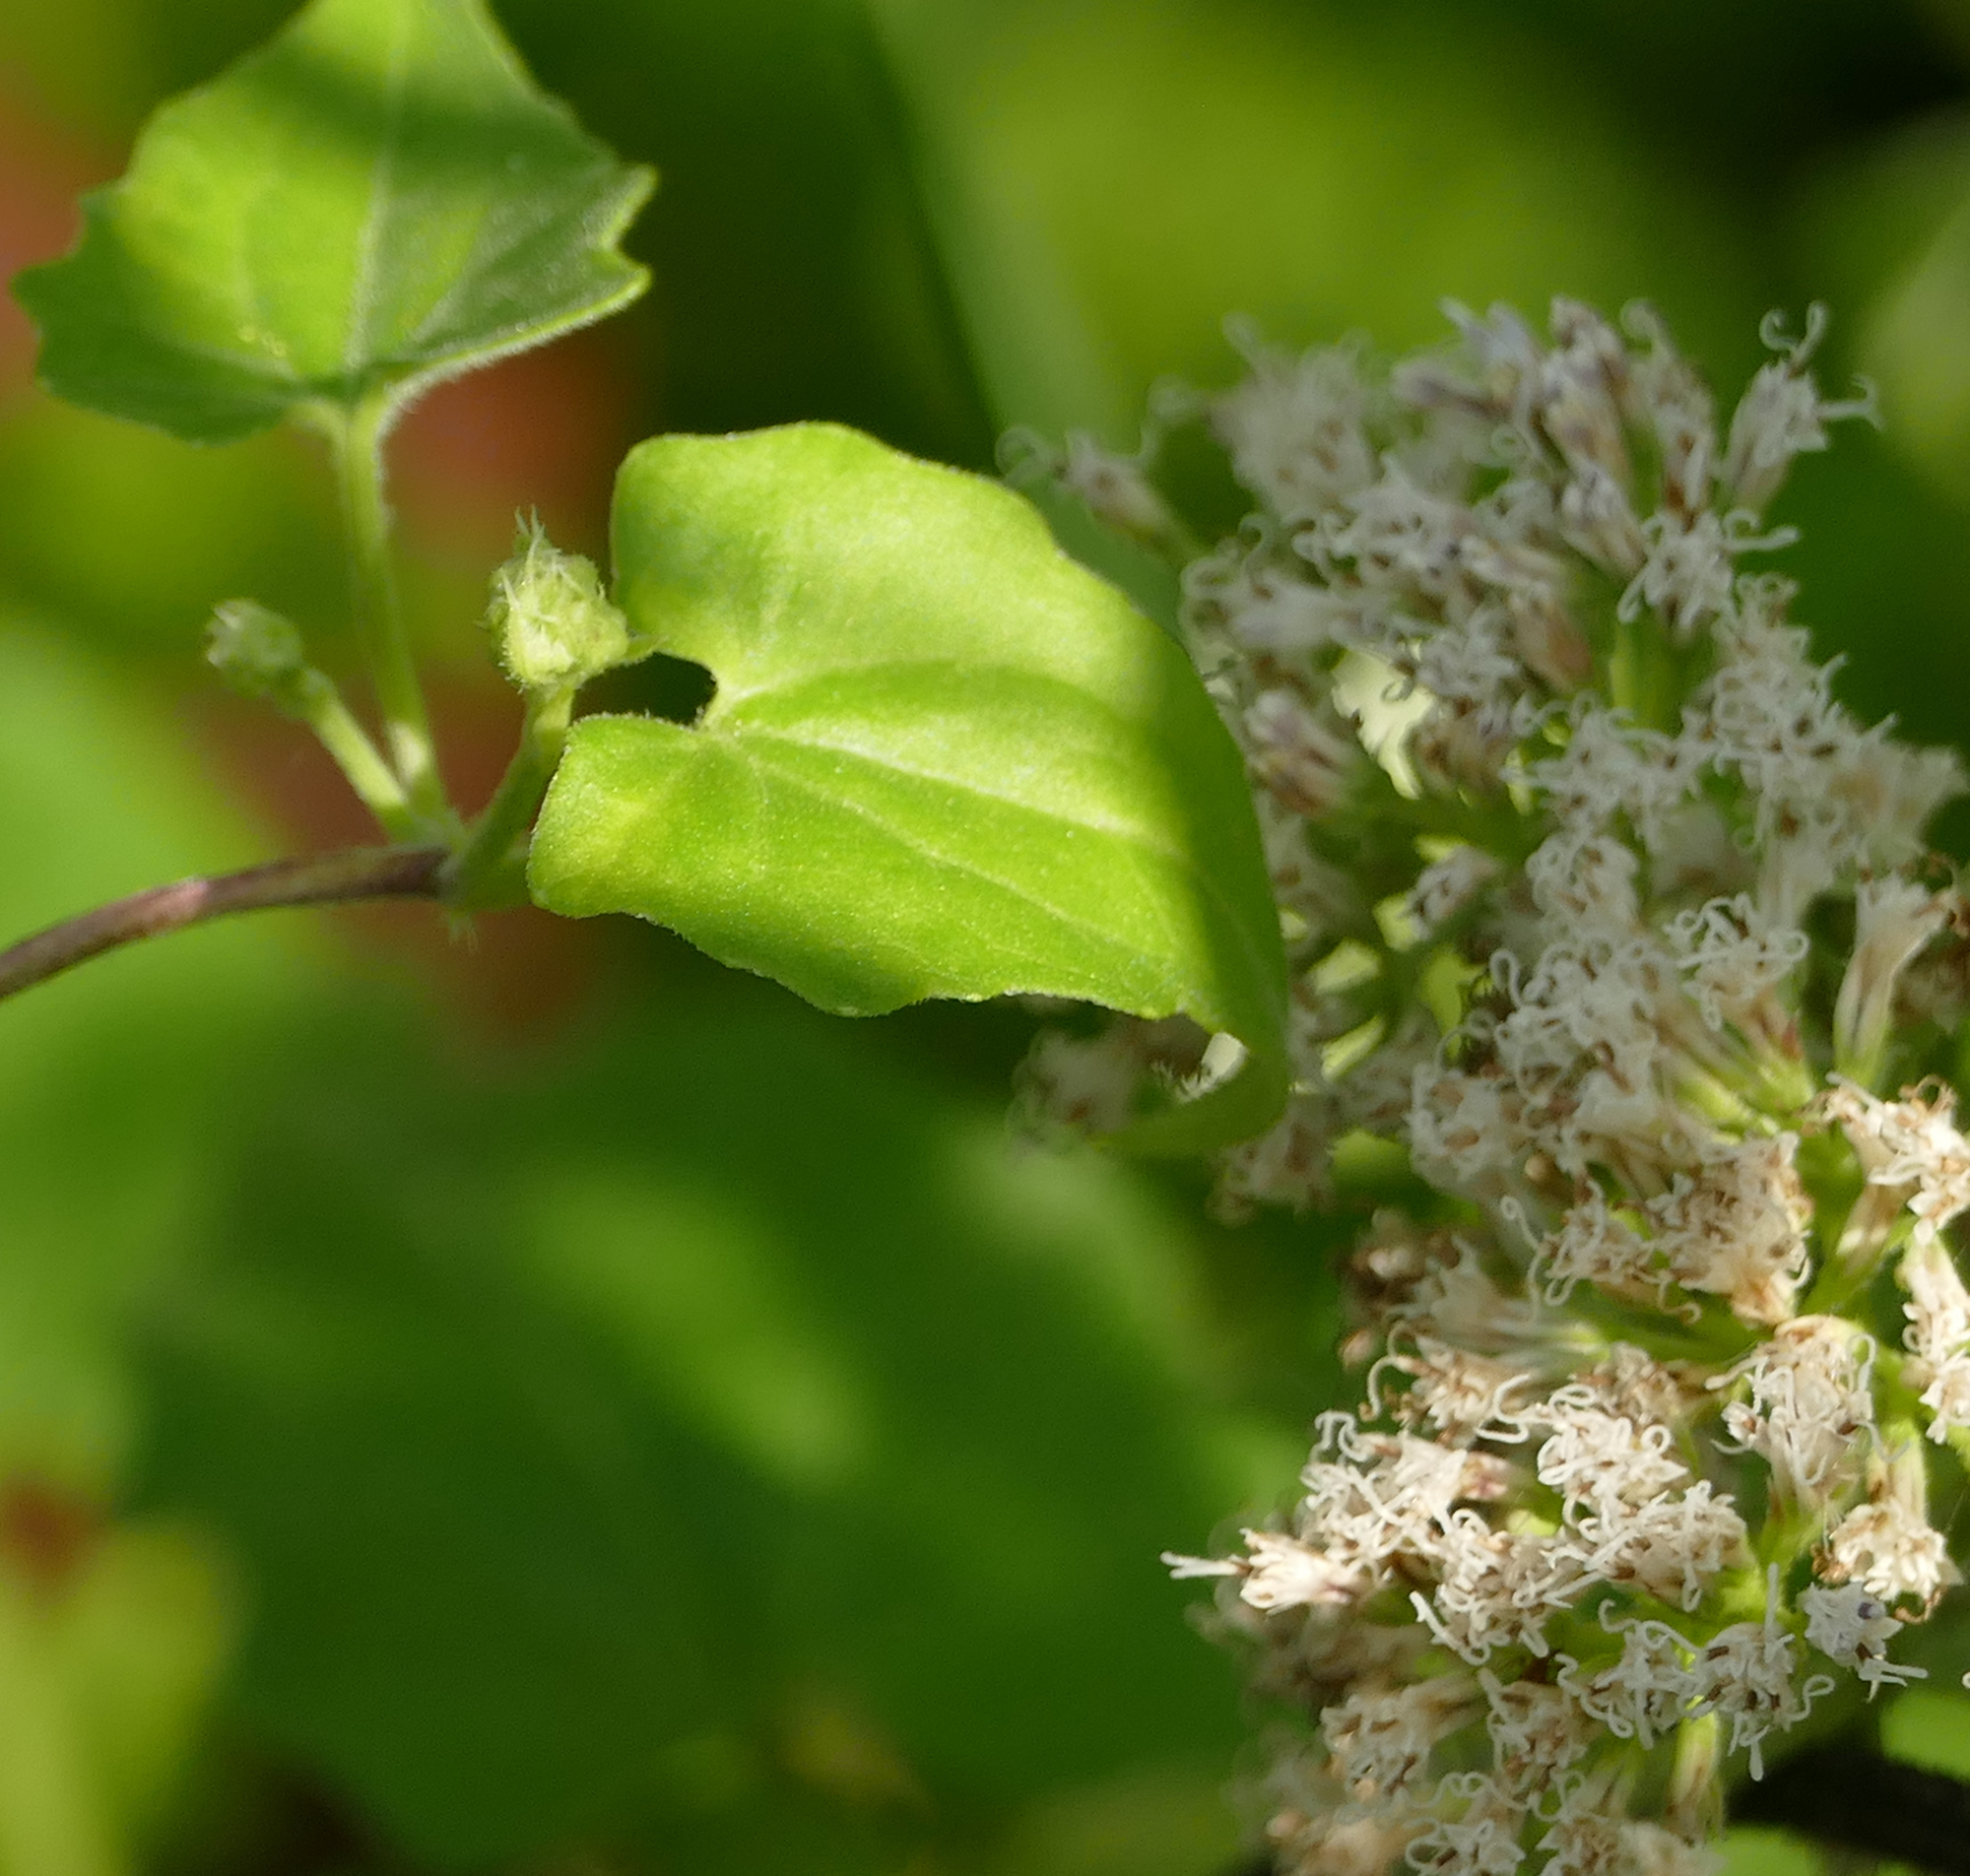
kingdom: Plantae
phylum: Tracheophyta
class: Magnoliopsida
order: Asterales
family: Asteraceae
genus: Mikania
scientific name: Mikania scandens
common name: Climbing hempvine
